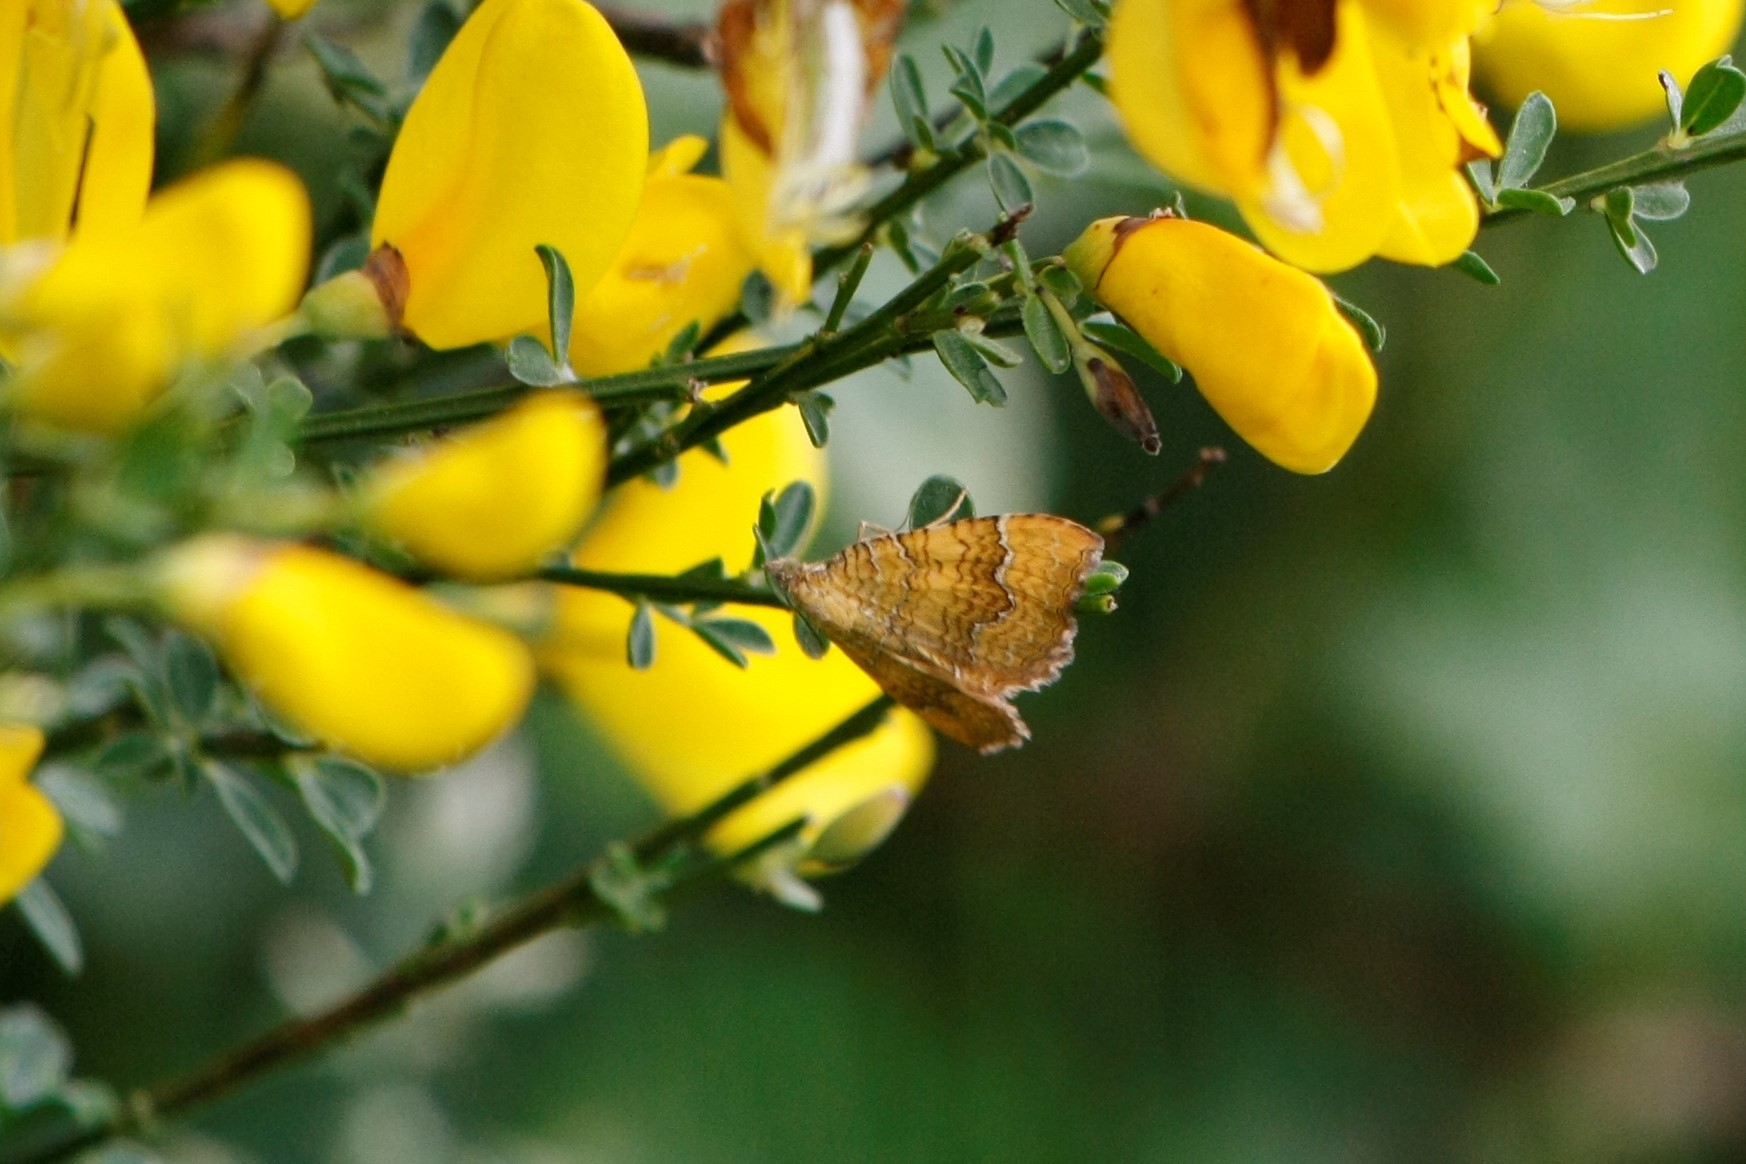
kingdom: Animalia
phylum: Arthropoda
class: Insecta
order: Lepidoptera
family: Geometridae
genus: Camptogramma
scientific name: Camptogramma bilineata
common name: Yellow shell
